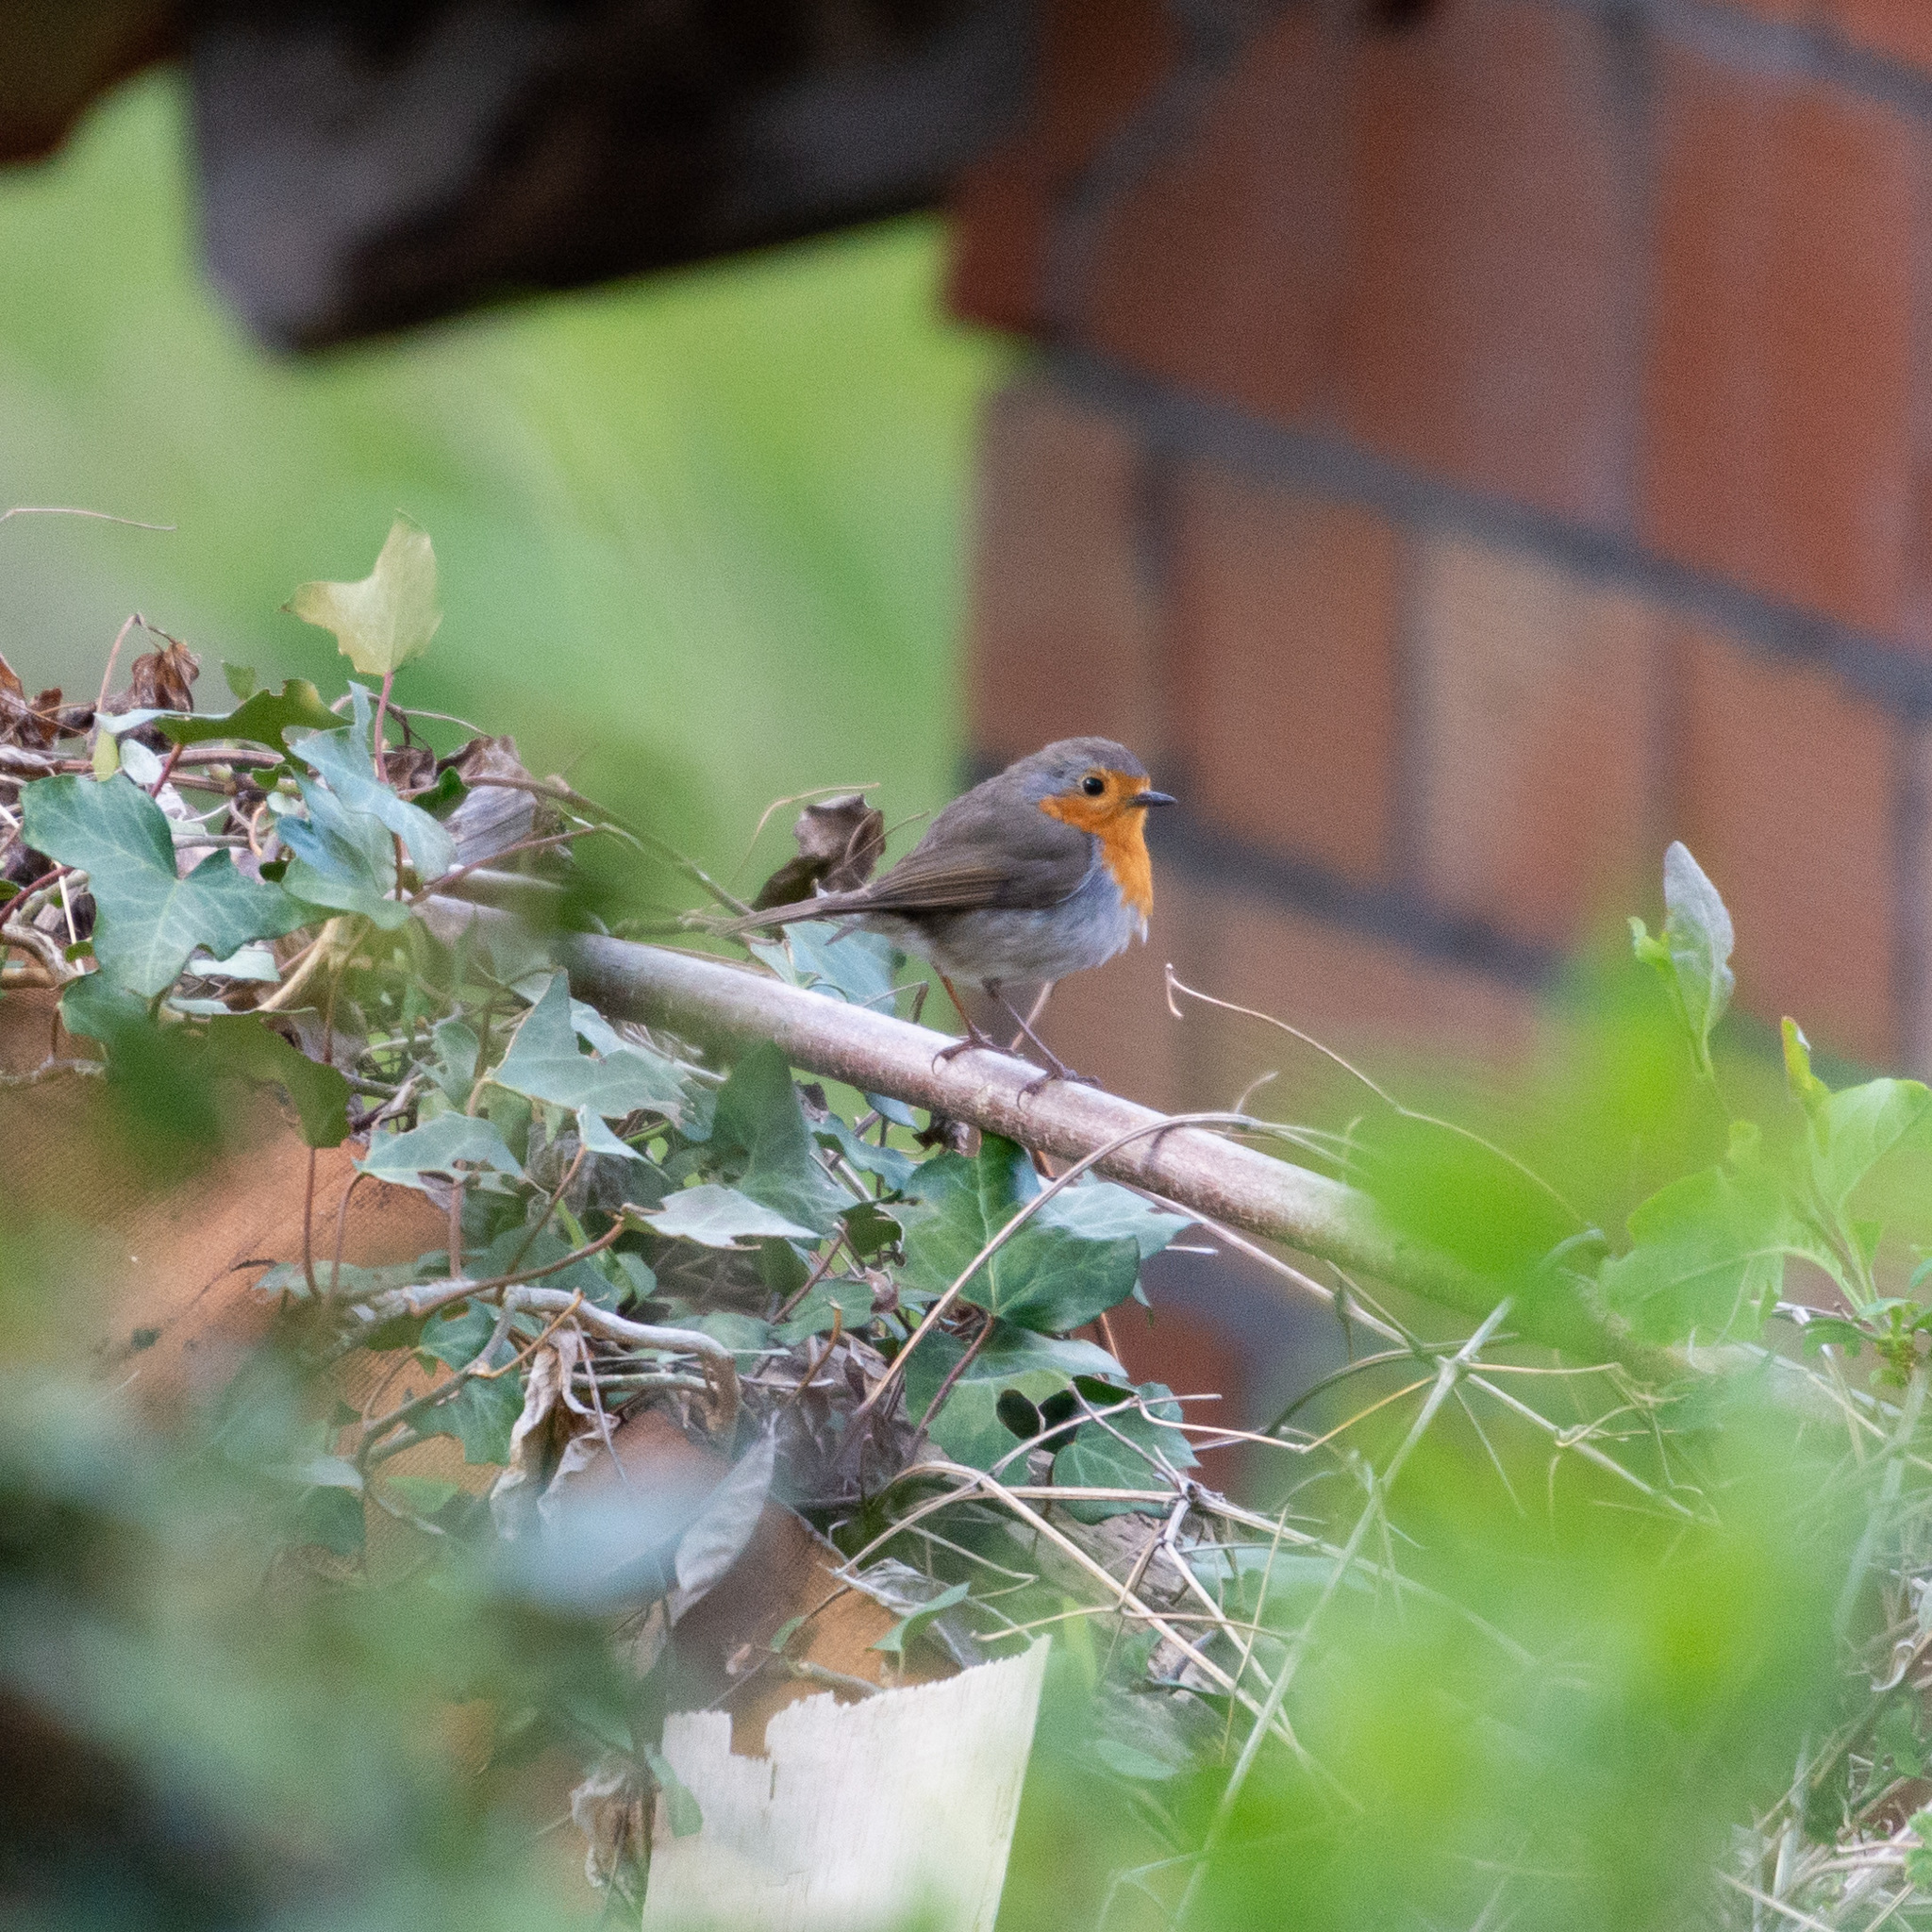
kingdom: Animalia
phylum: Chordata
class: Aves
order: Passeriformes
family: Muscicapidae
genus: Erithacus
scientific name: Erithacus rubecula
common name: European robin
